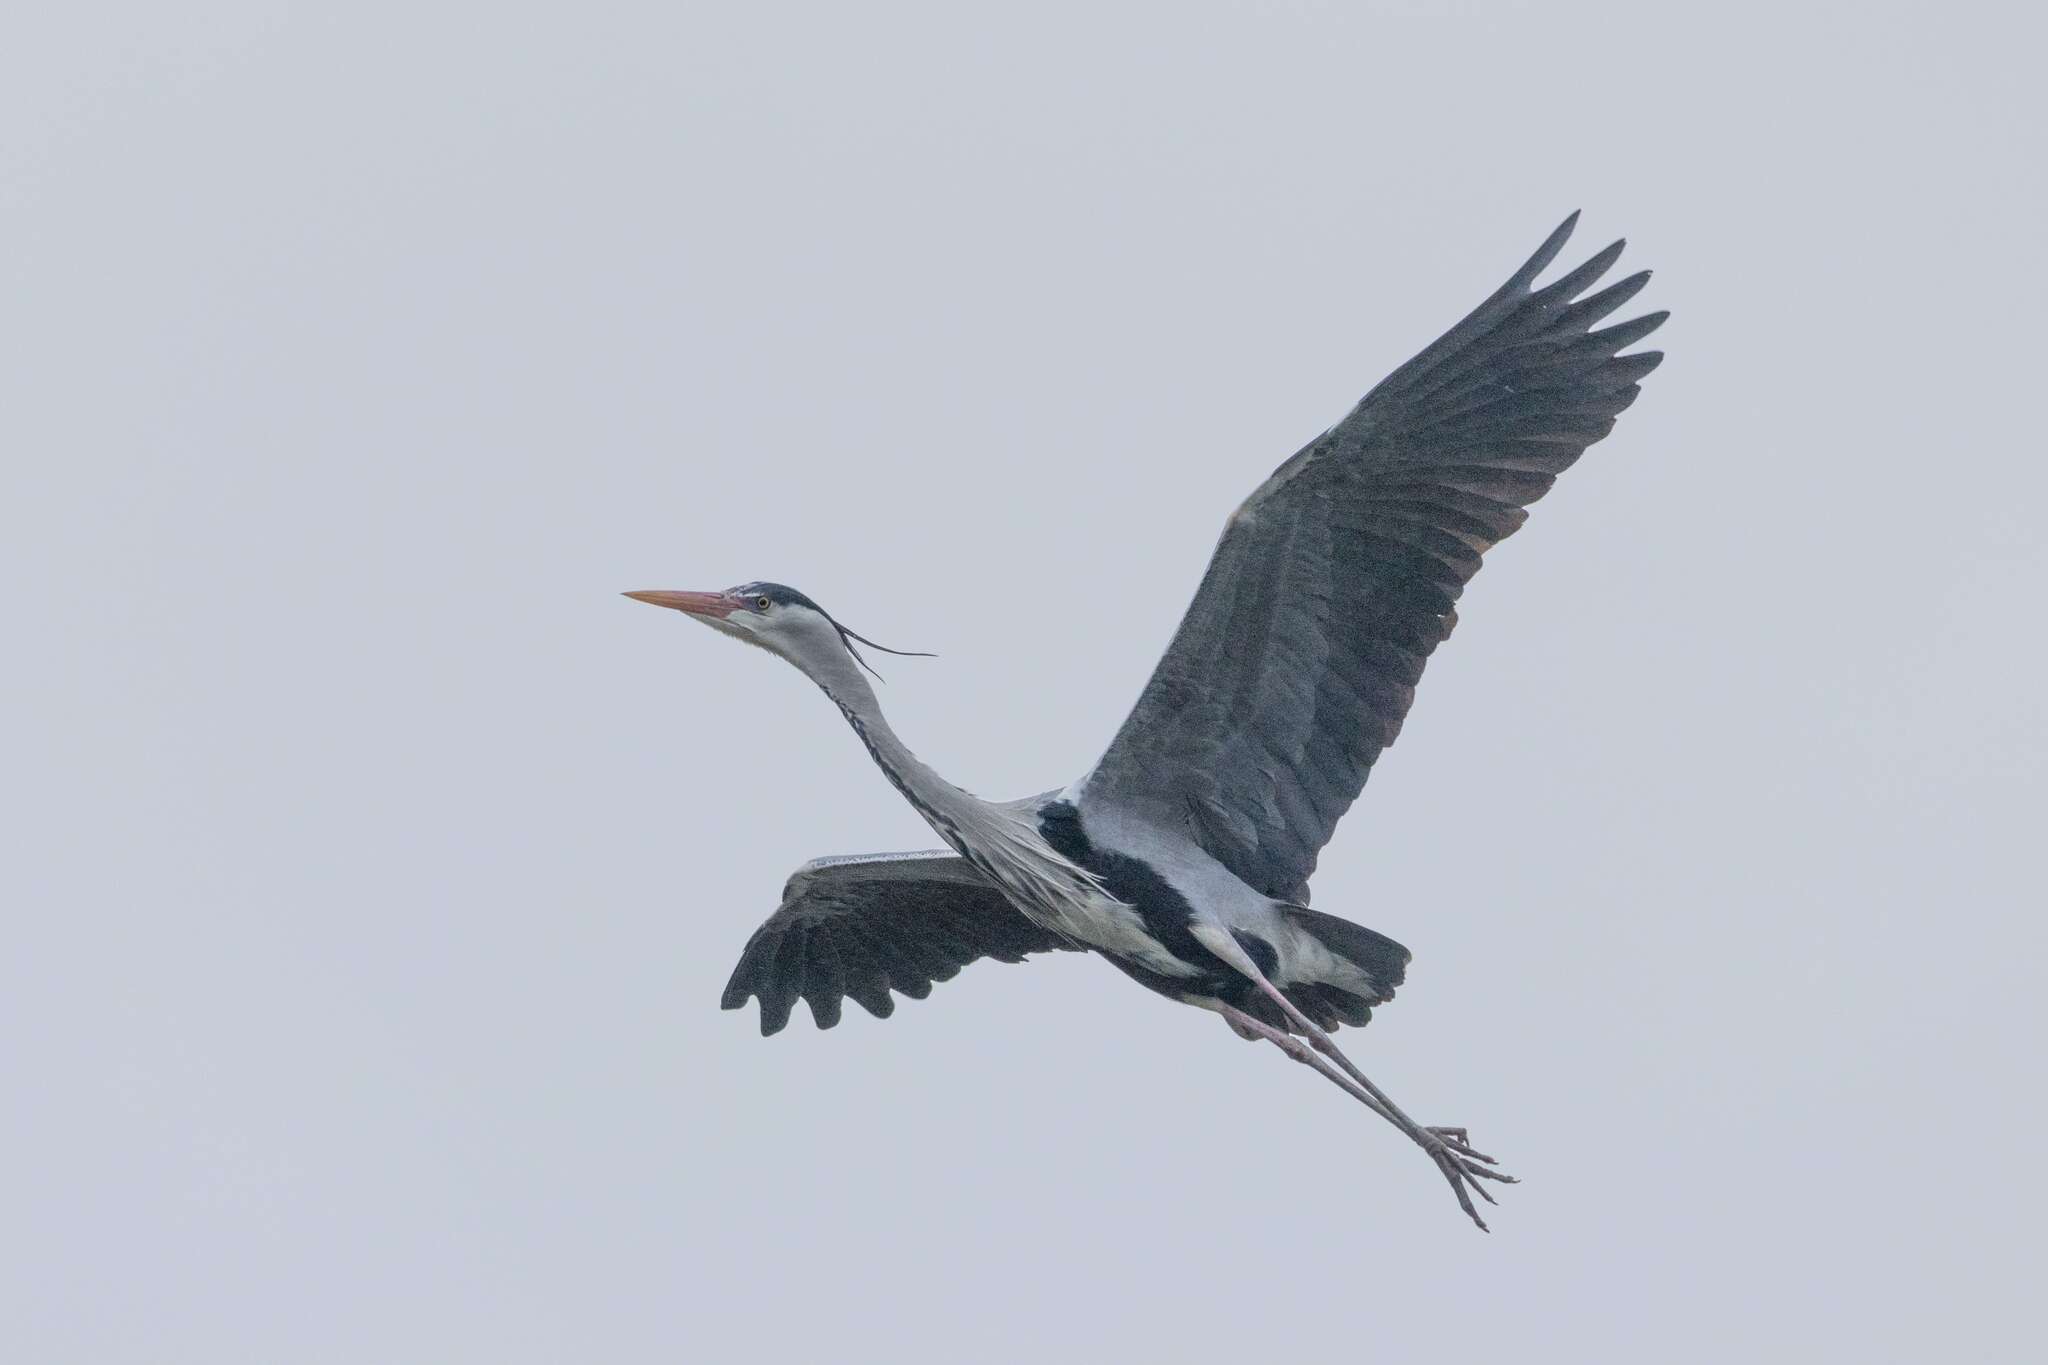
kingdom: Animalia
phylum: Chordata
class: Aves
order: Pelecaniformes
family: Ardeidae
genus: Ardea
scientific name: Ardea cinerea
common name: Grey heron
